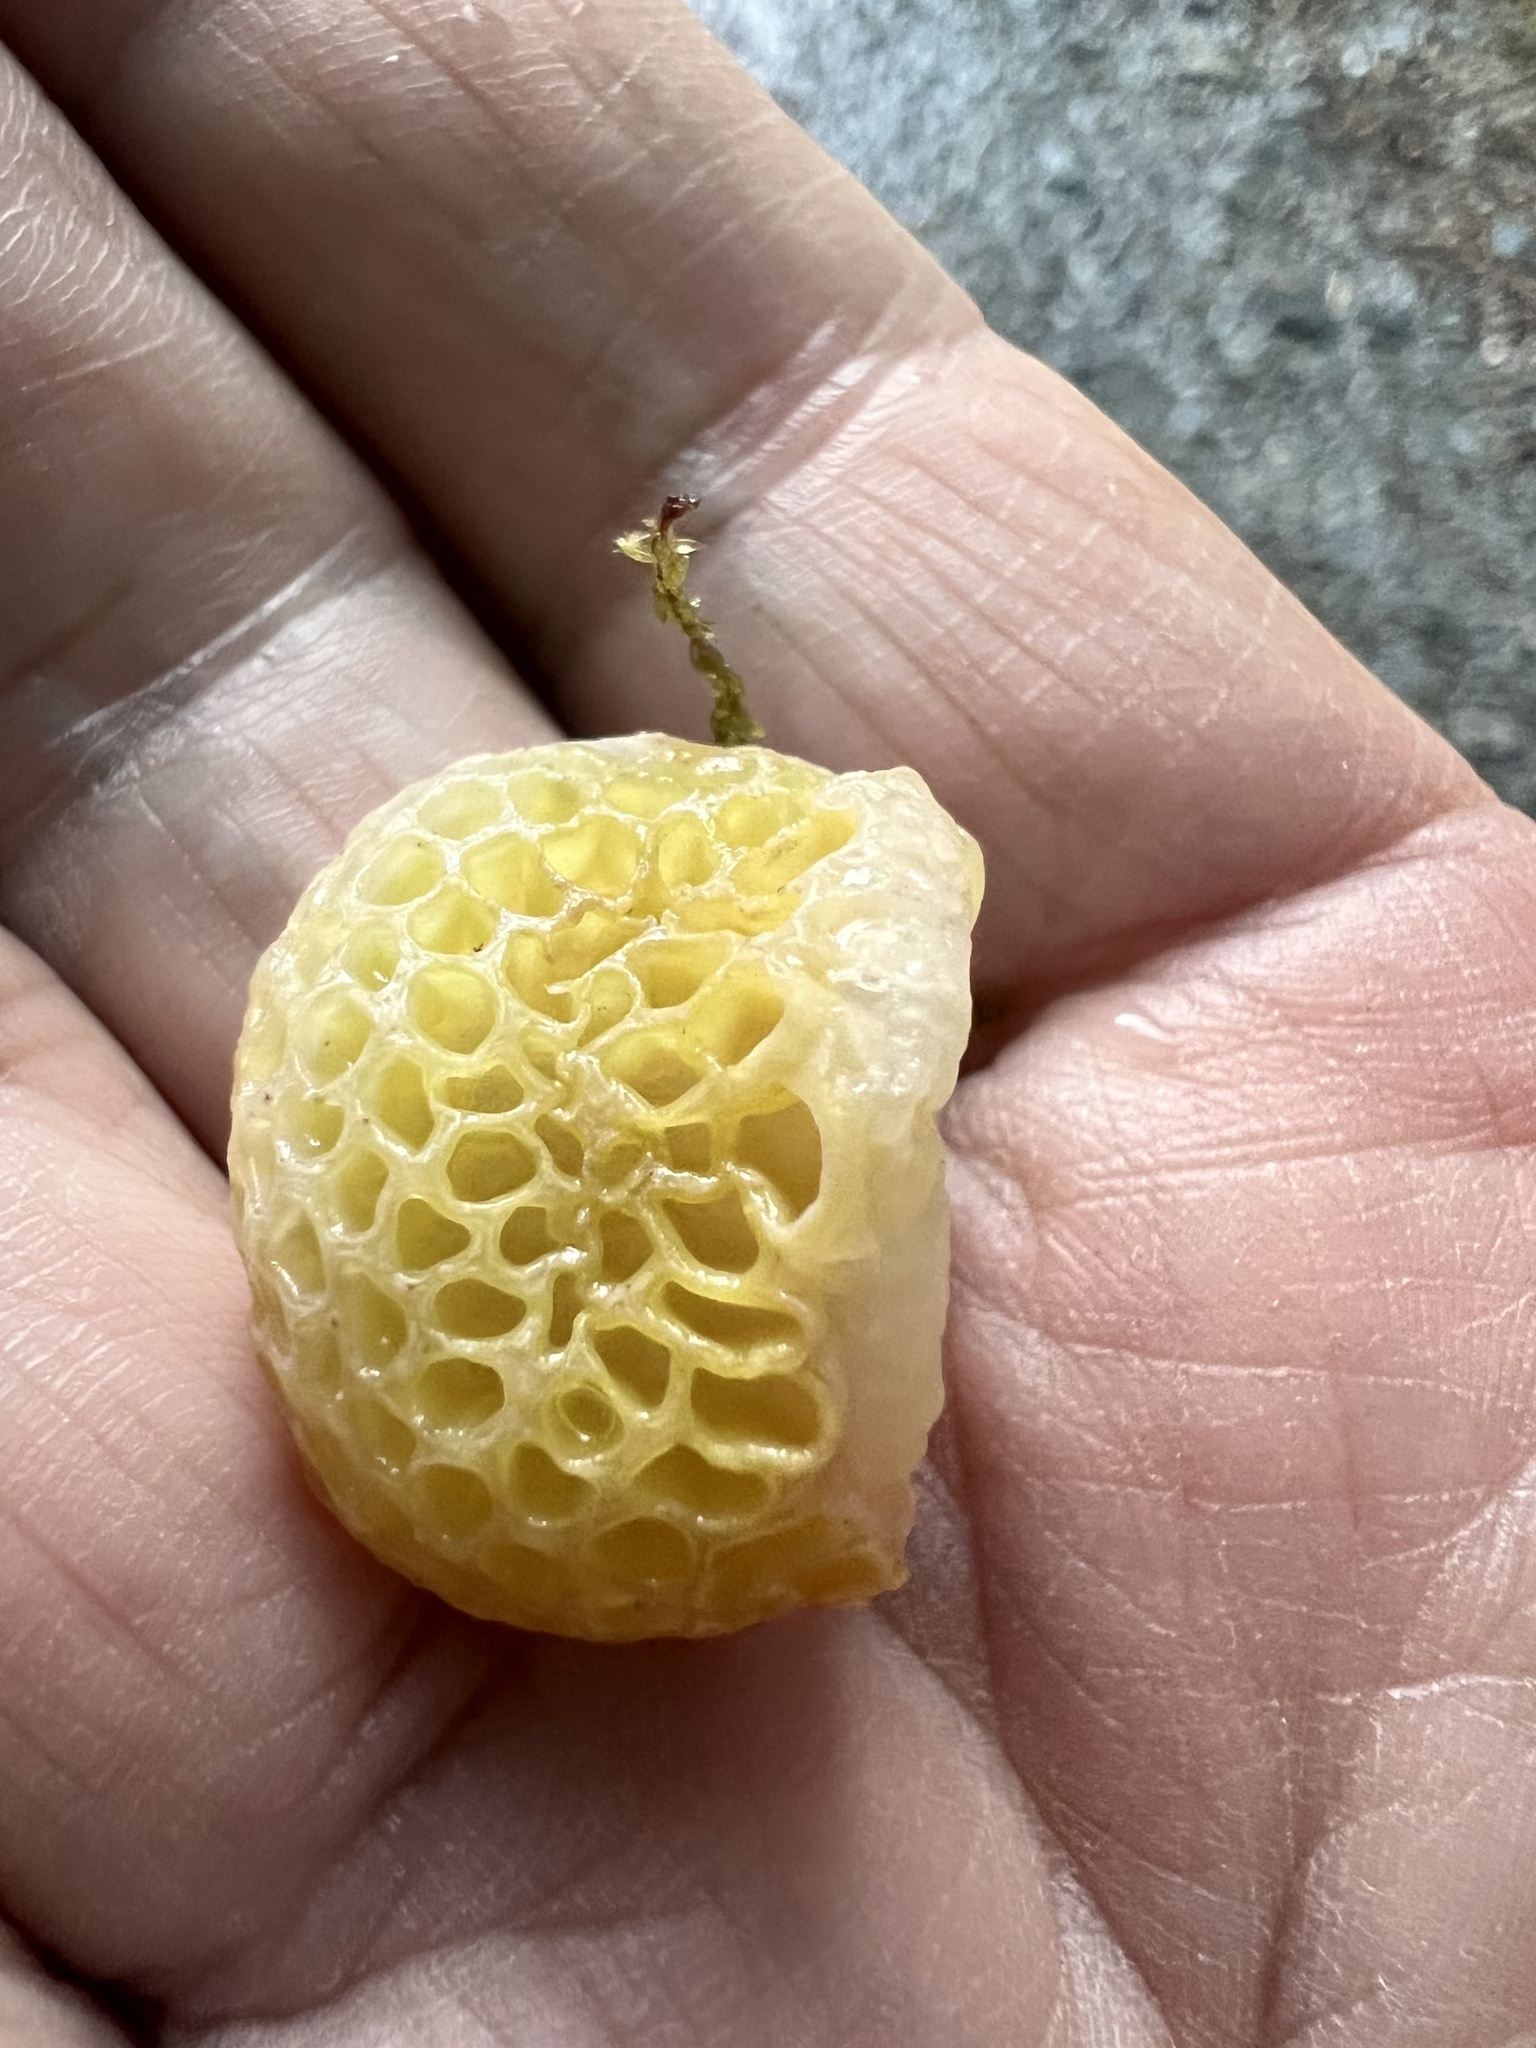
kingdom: Fungi
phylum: Ascomycota
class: Leotiomycetes
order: Cyttariales
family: Cyttariaceae
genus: Cyttaria
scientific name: Cyttaria gunnii
